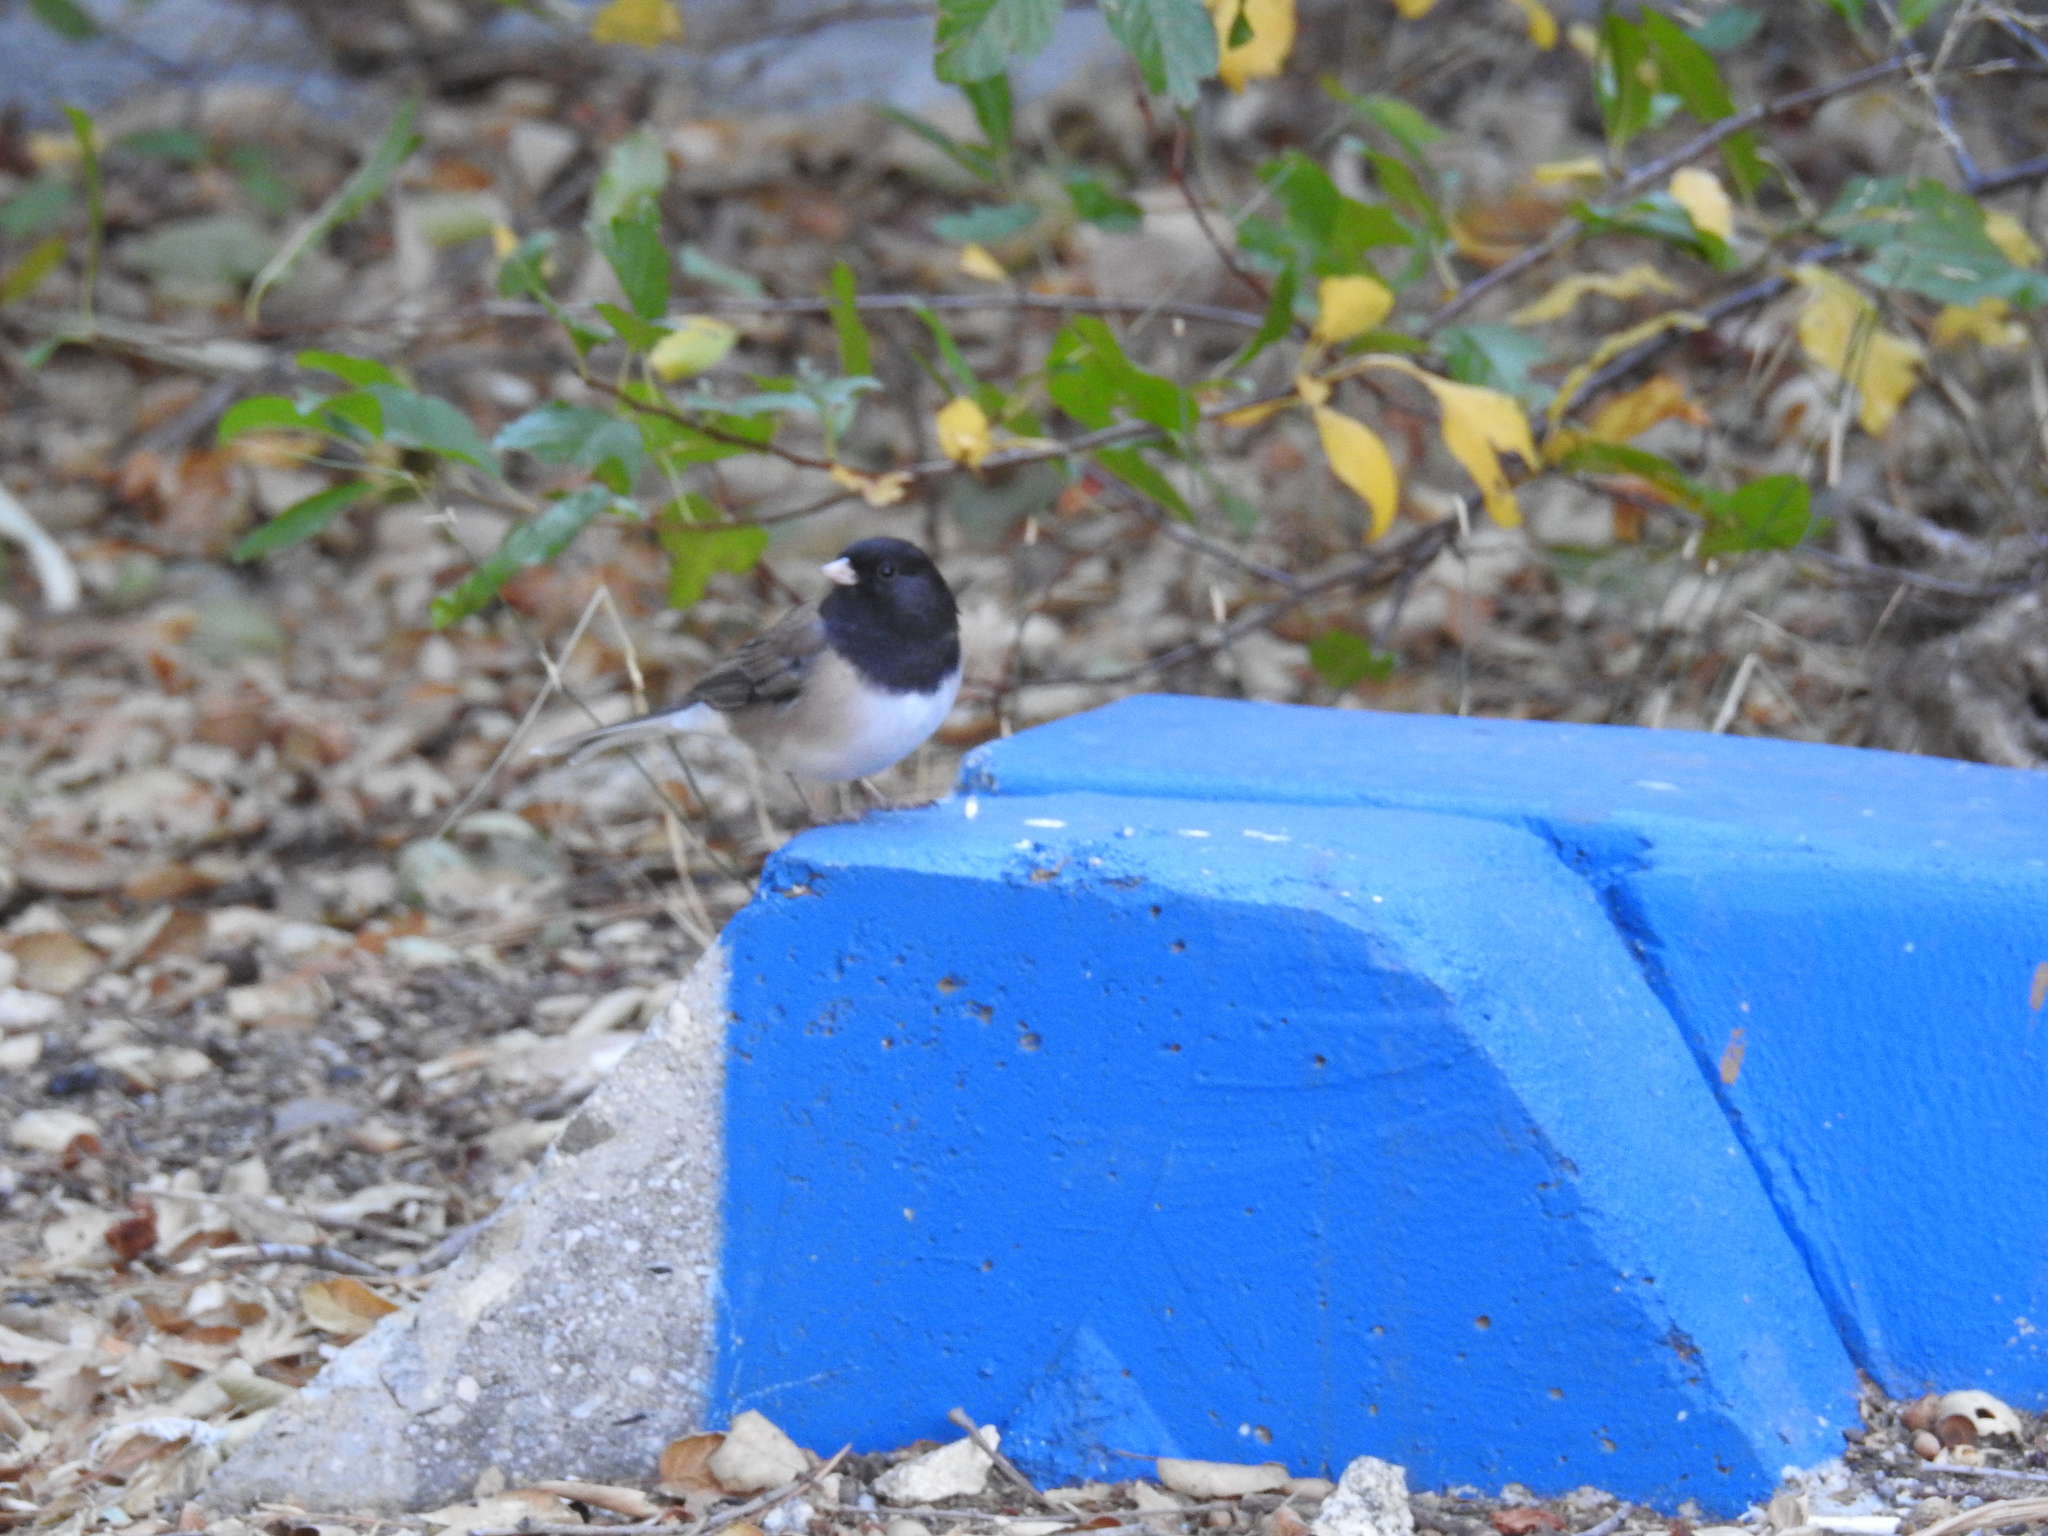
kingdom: Animalia
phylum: Chordata
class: Aves
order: Passeriformes
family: Passerellidae
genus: Junco
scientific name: Junco hyemalis
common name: Dark-eyed junco
